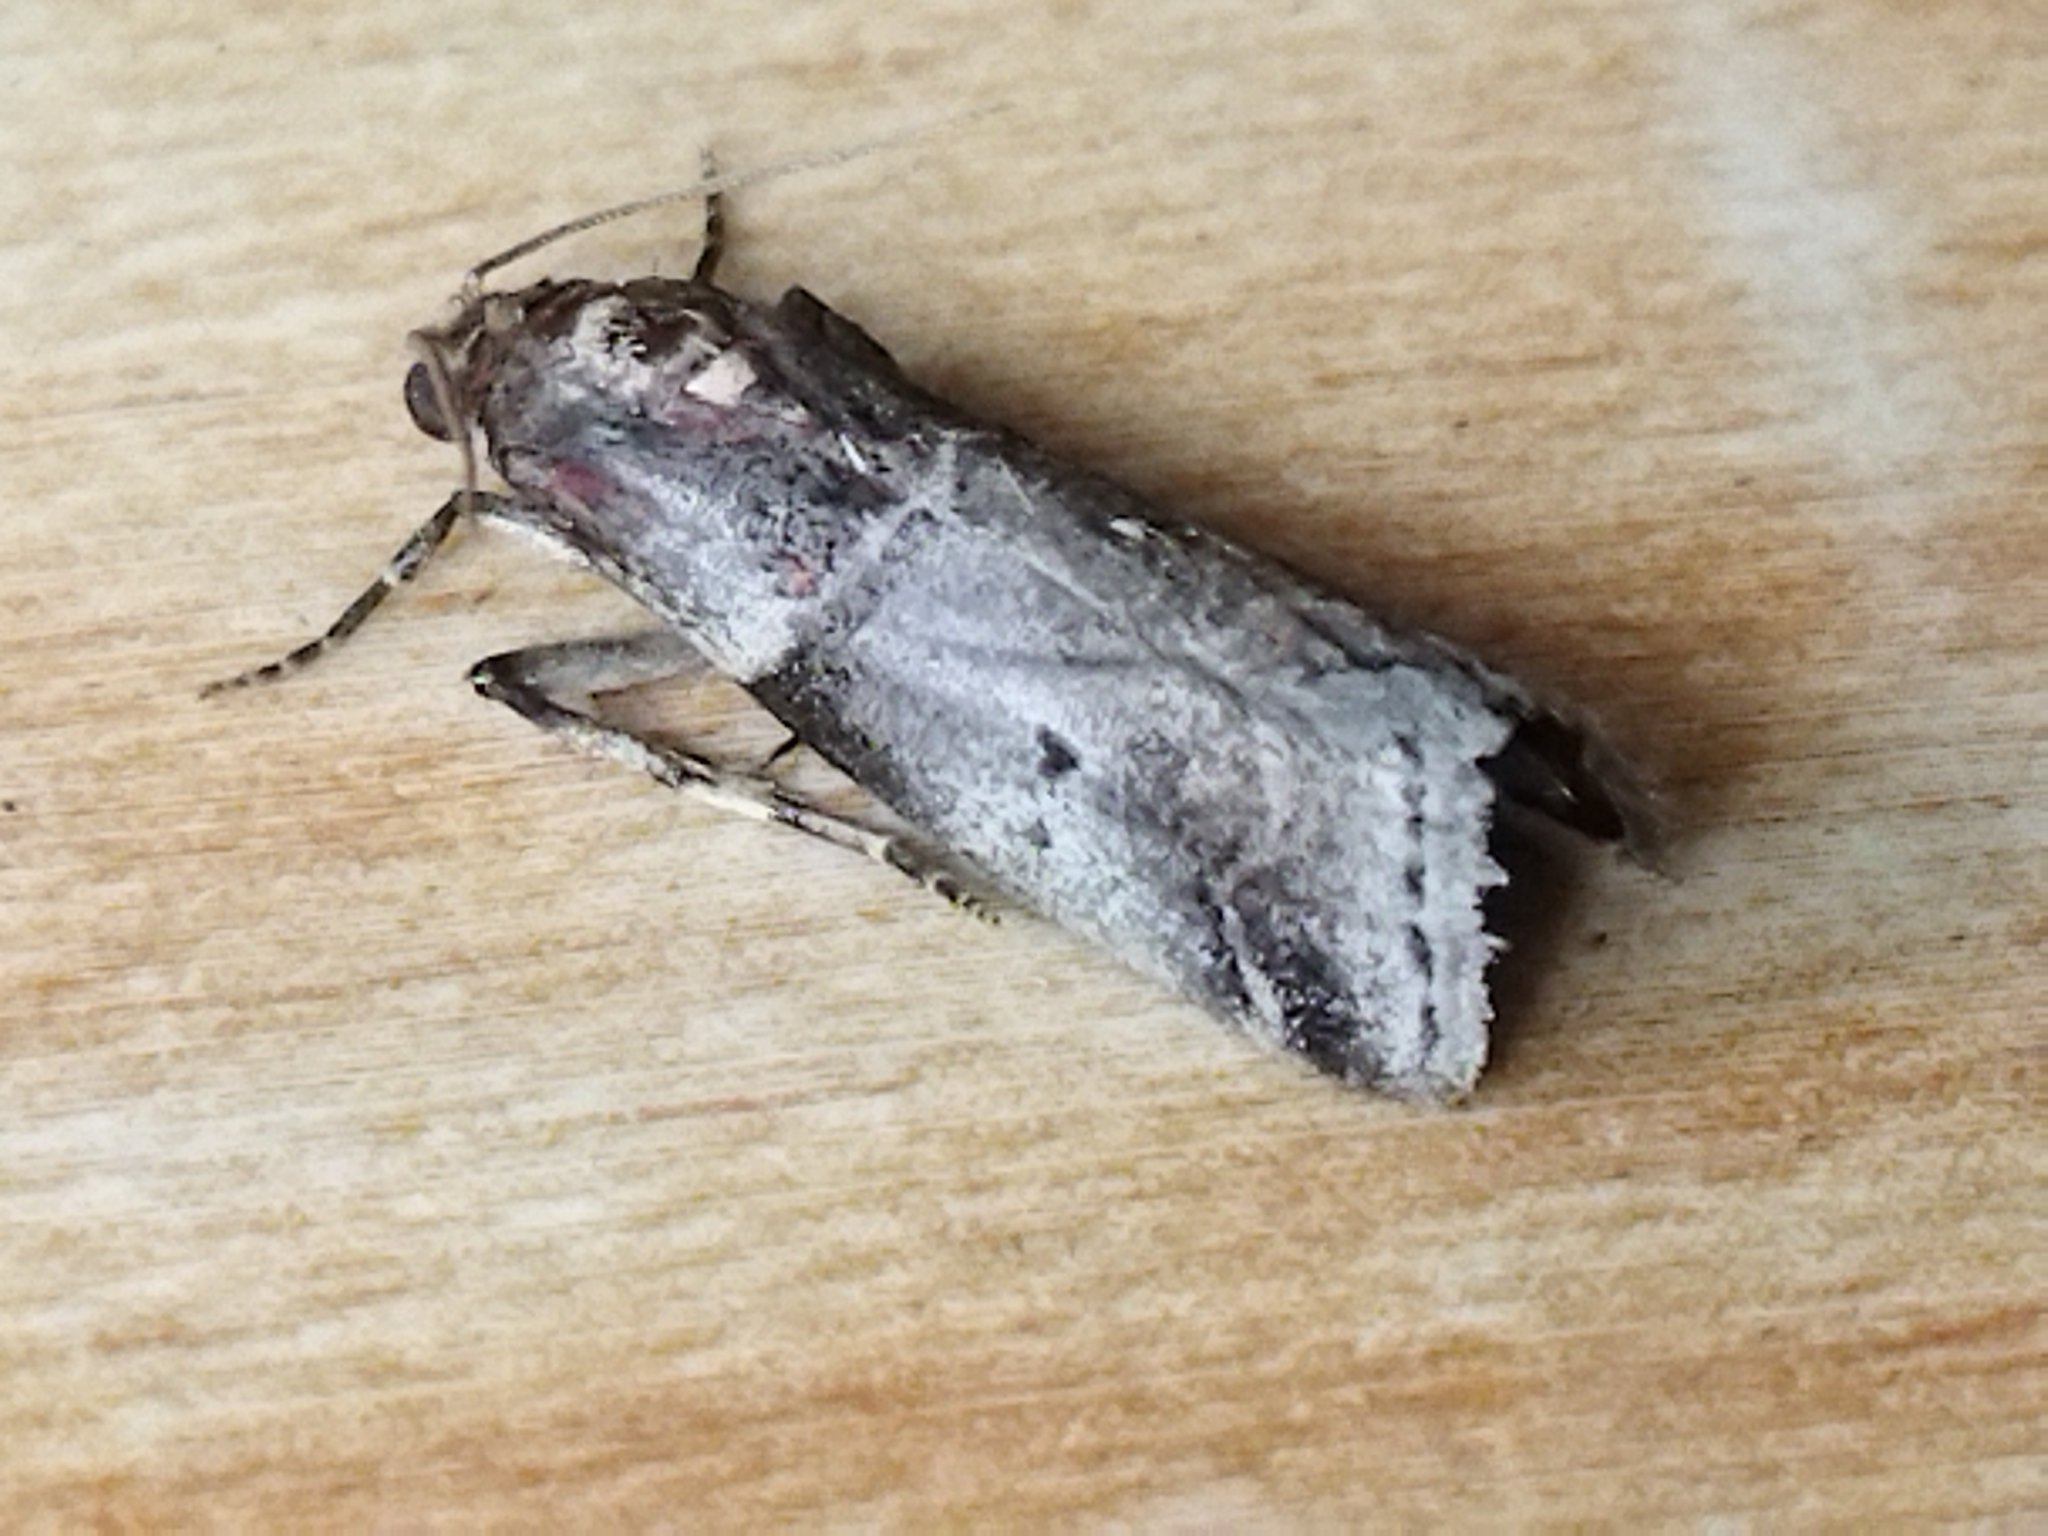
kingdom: Animalia
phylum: Arthropoda
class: Insecta
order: Lepidoptera
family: Pyralidae
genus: Acrobasis
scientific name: Acrobasis advenella
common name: Grey knot-horn
